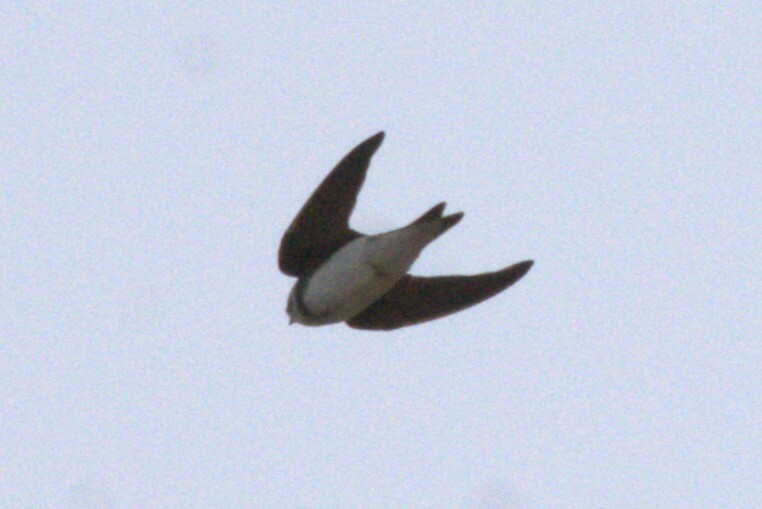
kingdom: Animalia
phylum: Chordata
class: Aves
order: Passeriformes
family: Hirundinidae
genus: Riparia
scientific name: Riparia riparia
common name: Sand martin
